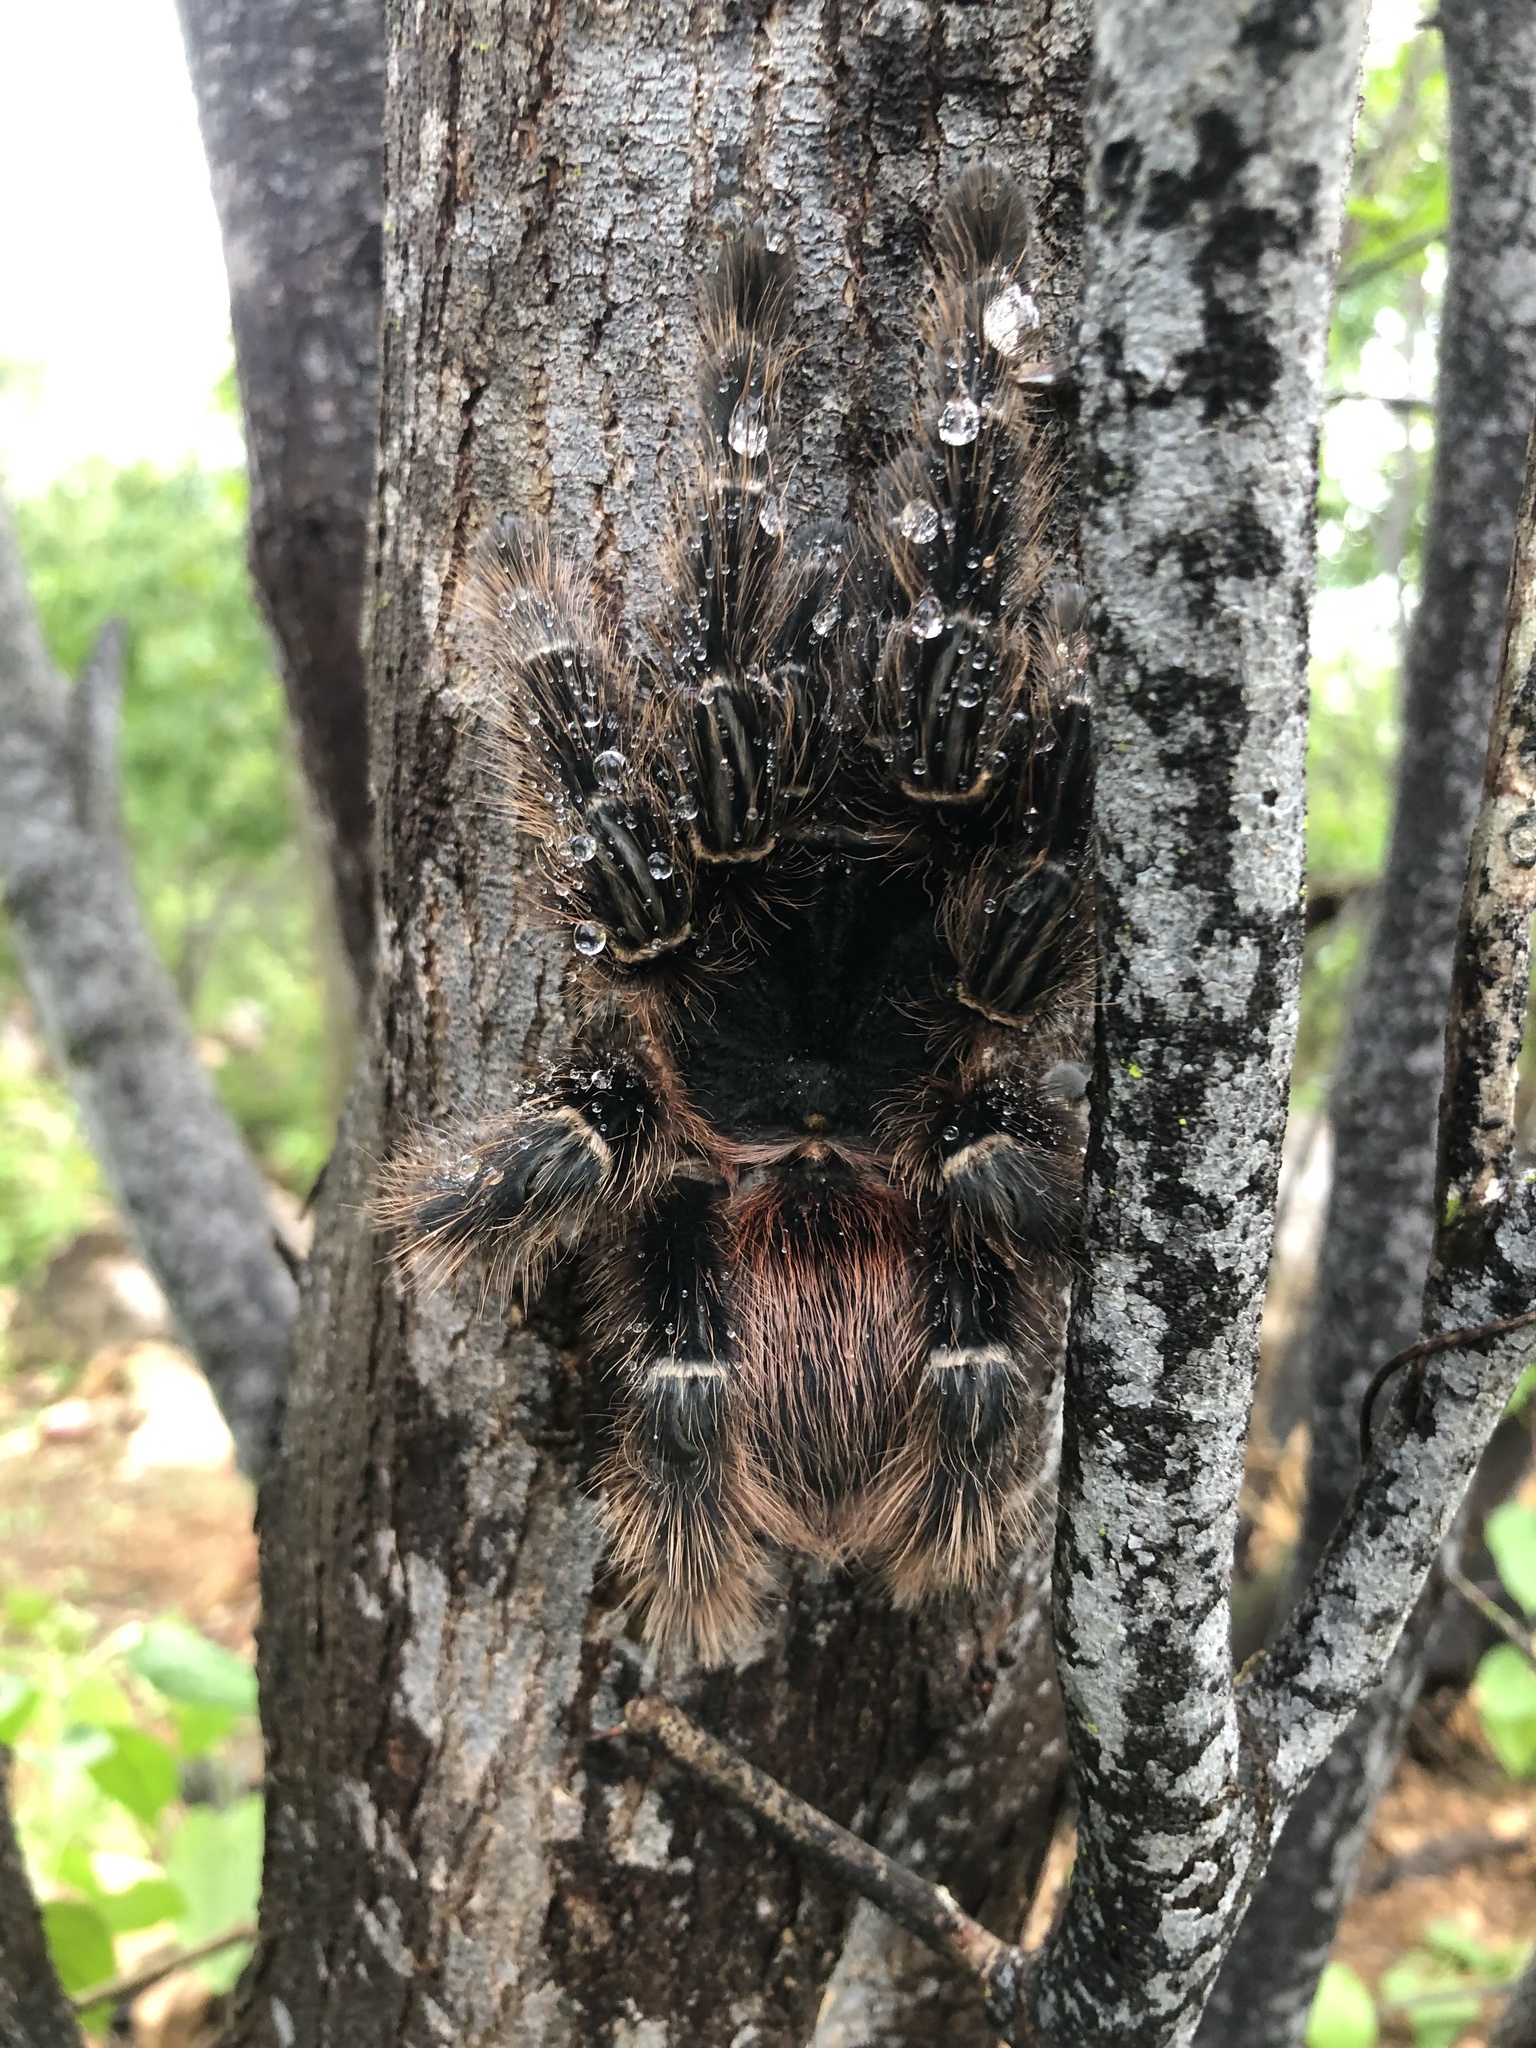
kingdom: Animalia
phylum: Arthropoda
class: Arachnida
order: Araneae
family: Theraphosidae
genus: Lasiodora
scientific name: Lasiodora parahybana
